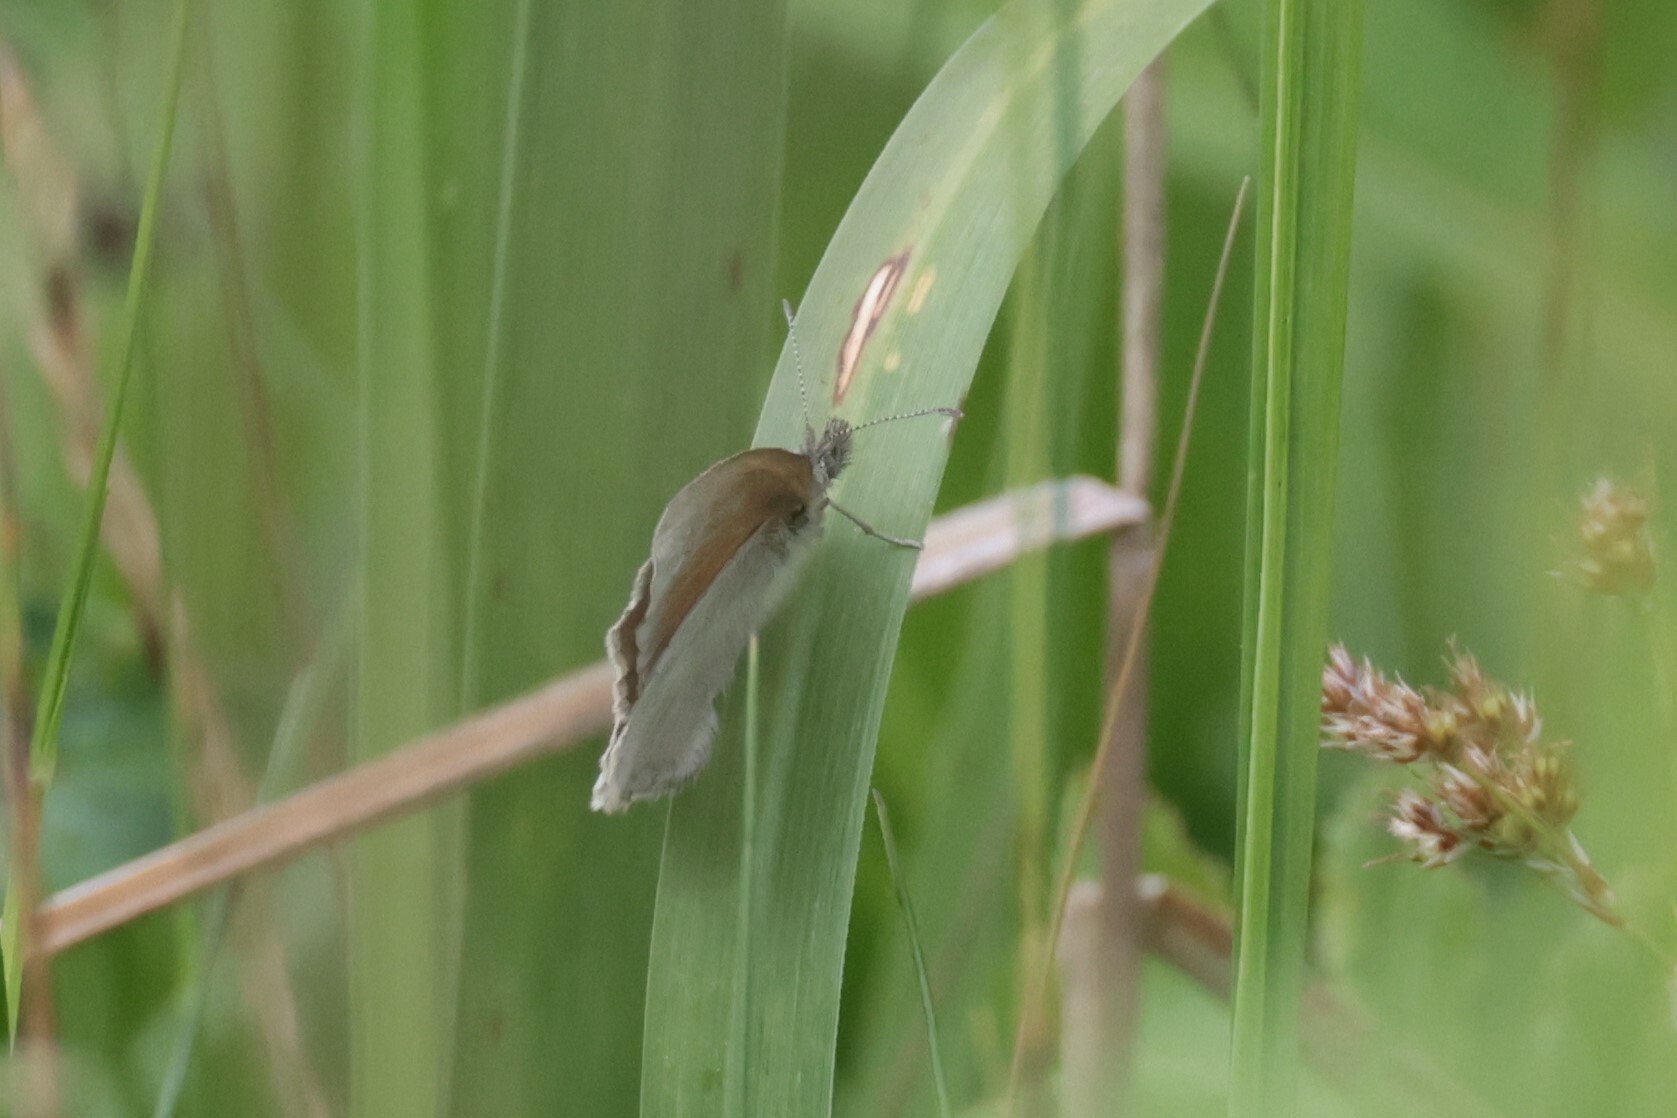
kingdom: Animalia
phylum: Arthropoda
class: Insecta
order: Lepidoptera
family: Nymphalidae
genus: Coenonympha
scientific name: Coenonympha california
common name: Common ringlet
